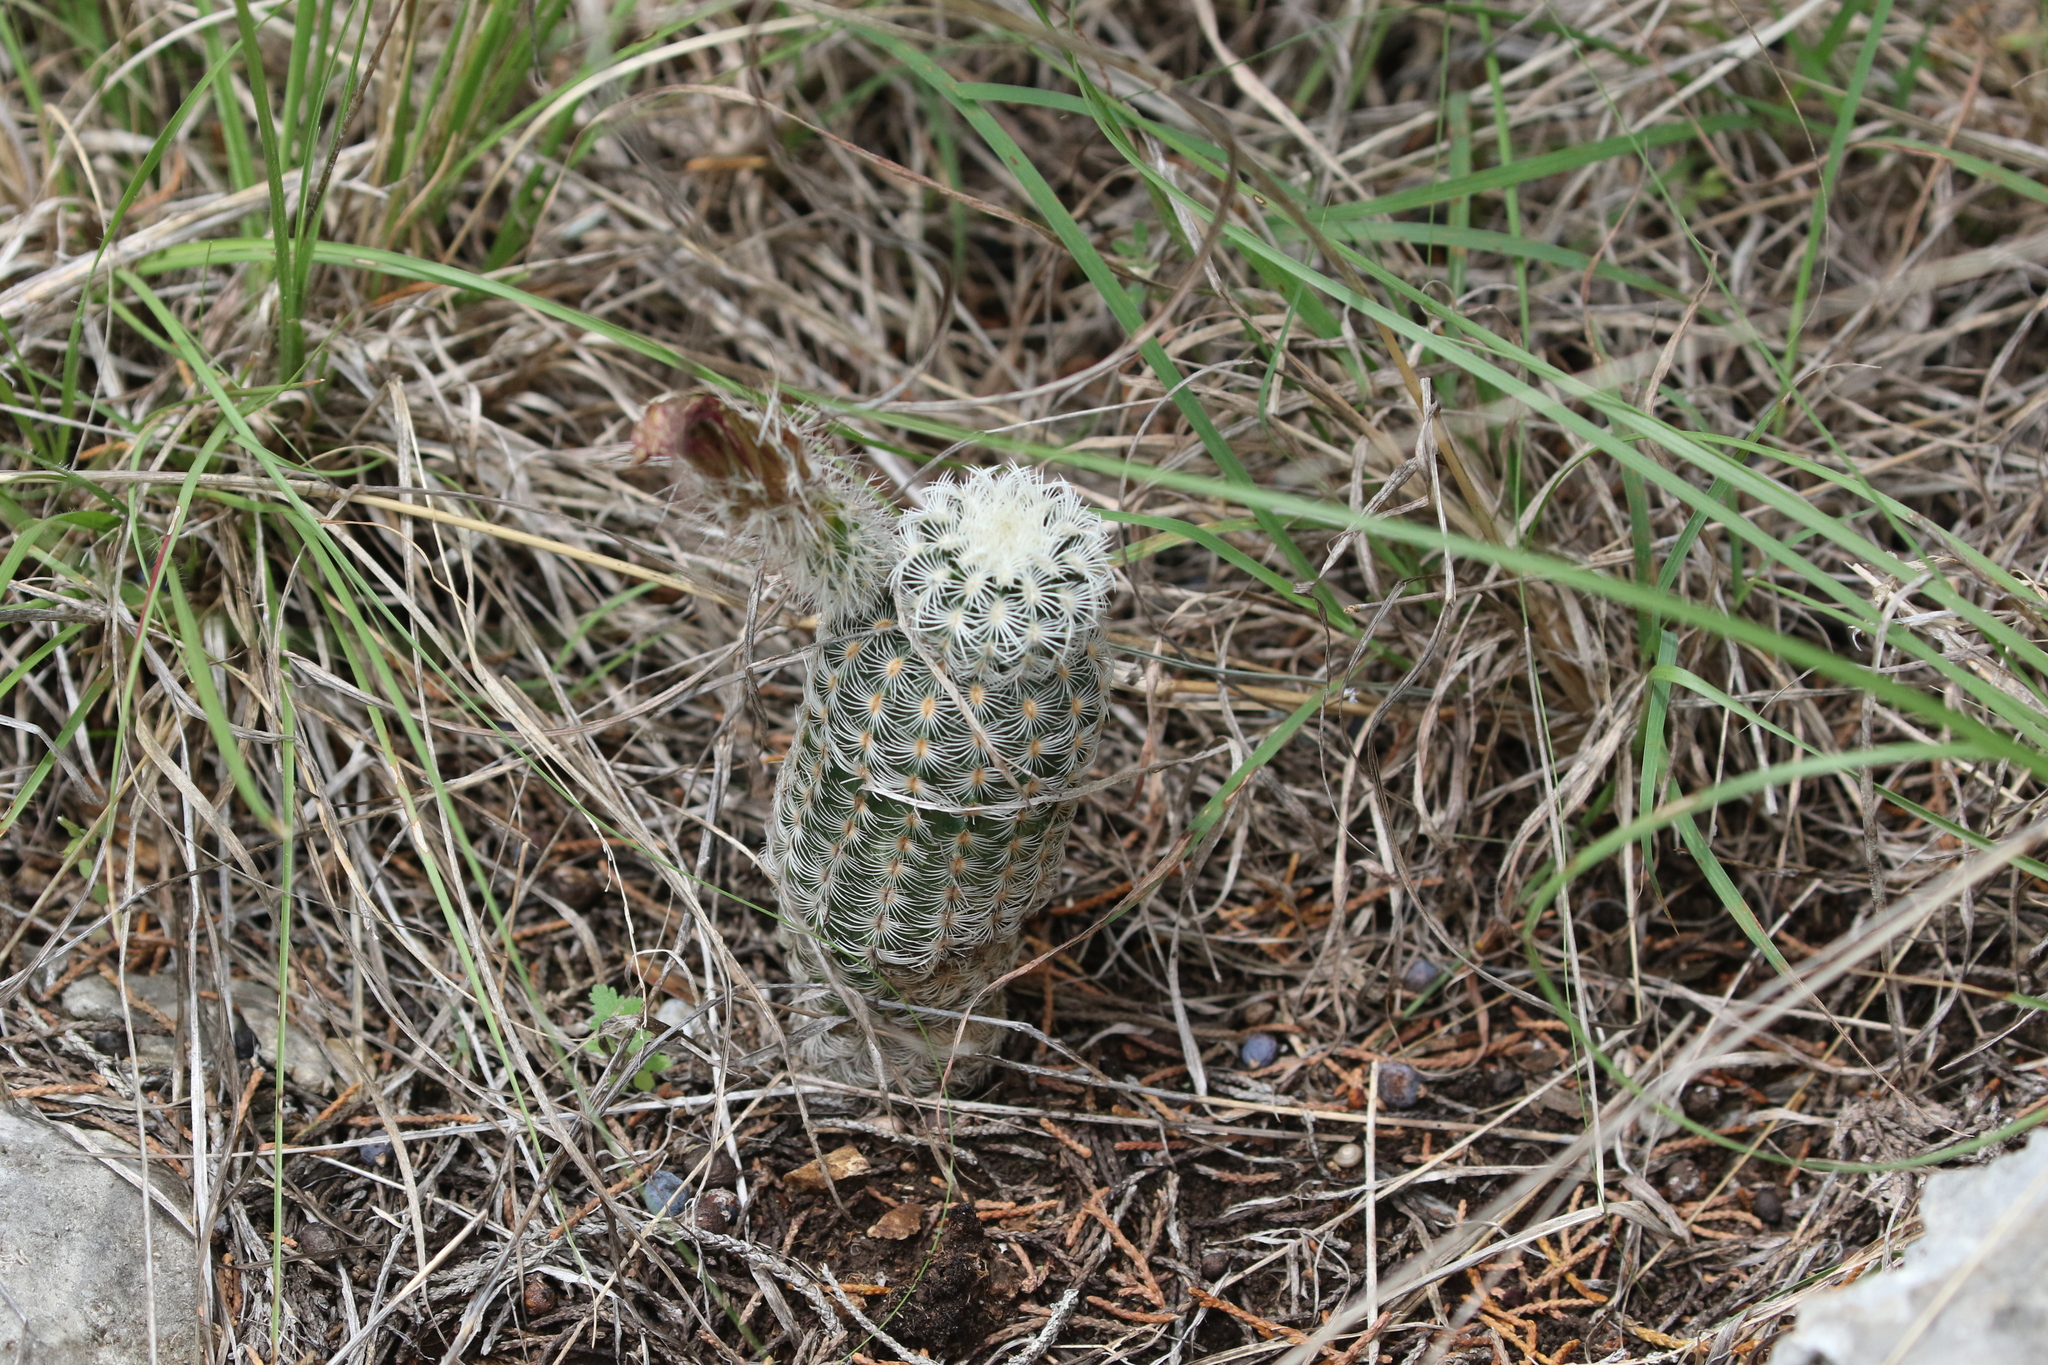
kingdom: Plantae
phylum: Tracheophyta
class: Magnoliopsida
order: Caryophyllales
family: Cactaceae
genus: Echinocereus
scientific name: Echinocereus reichenbachii
